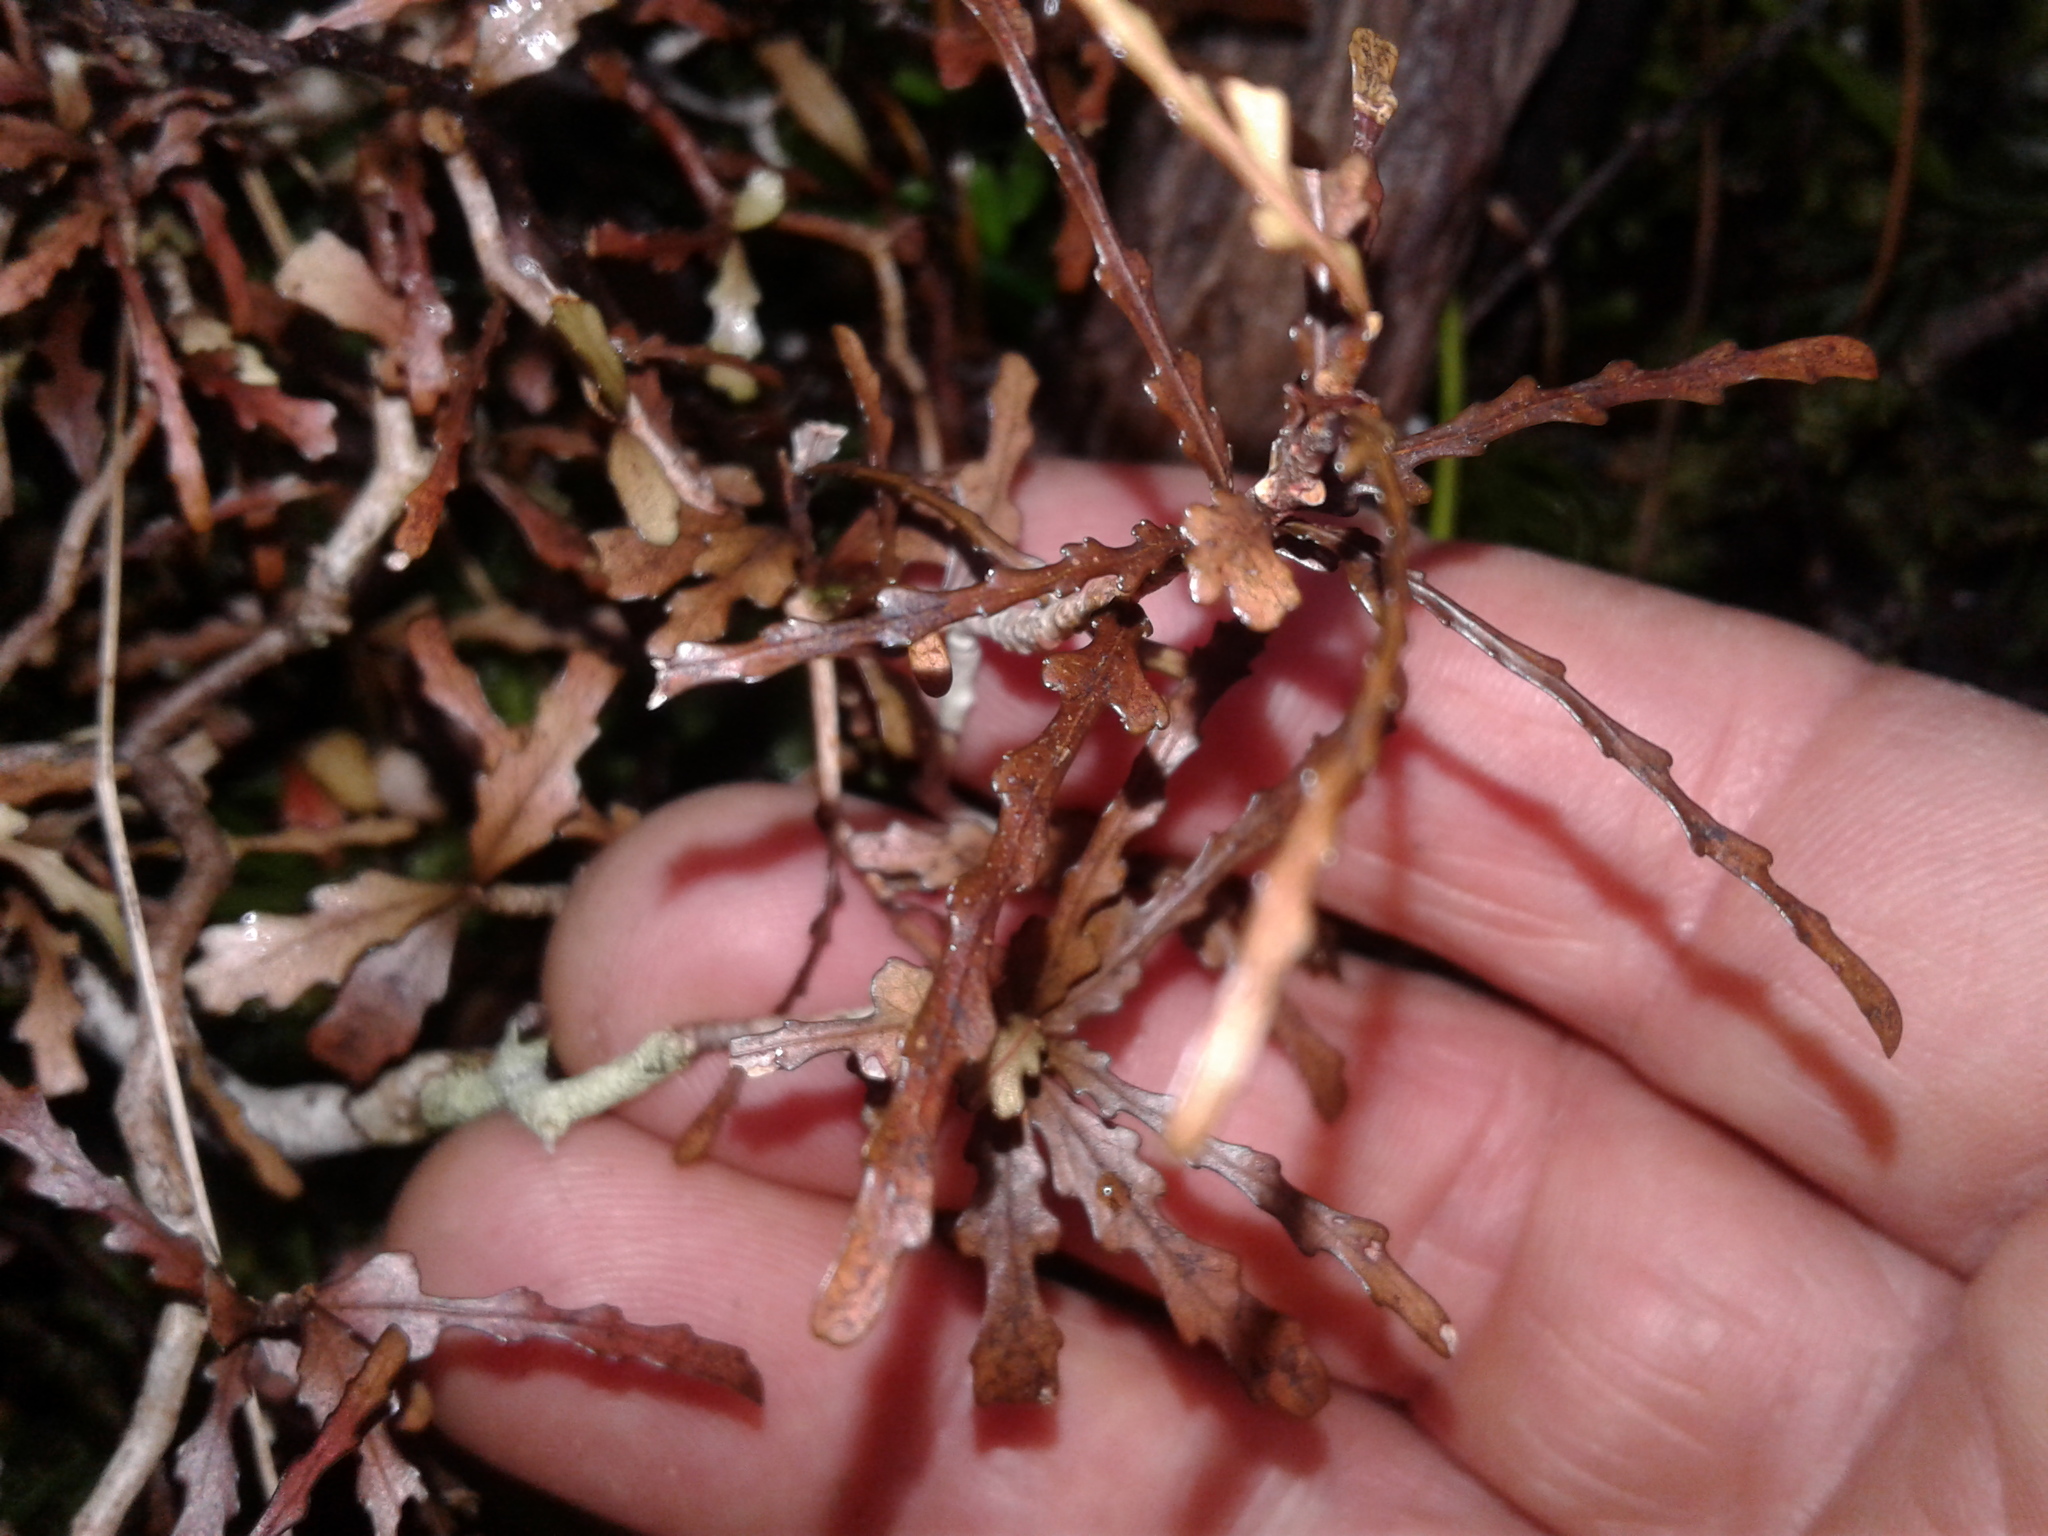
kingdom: Plantae
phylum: Tracheophyta
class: Magnoliopsida
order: Oxalidales
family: Elaeocarpaceae
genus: Elaeocarpus
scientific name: Elaeocarpus hookerianus
